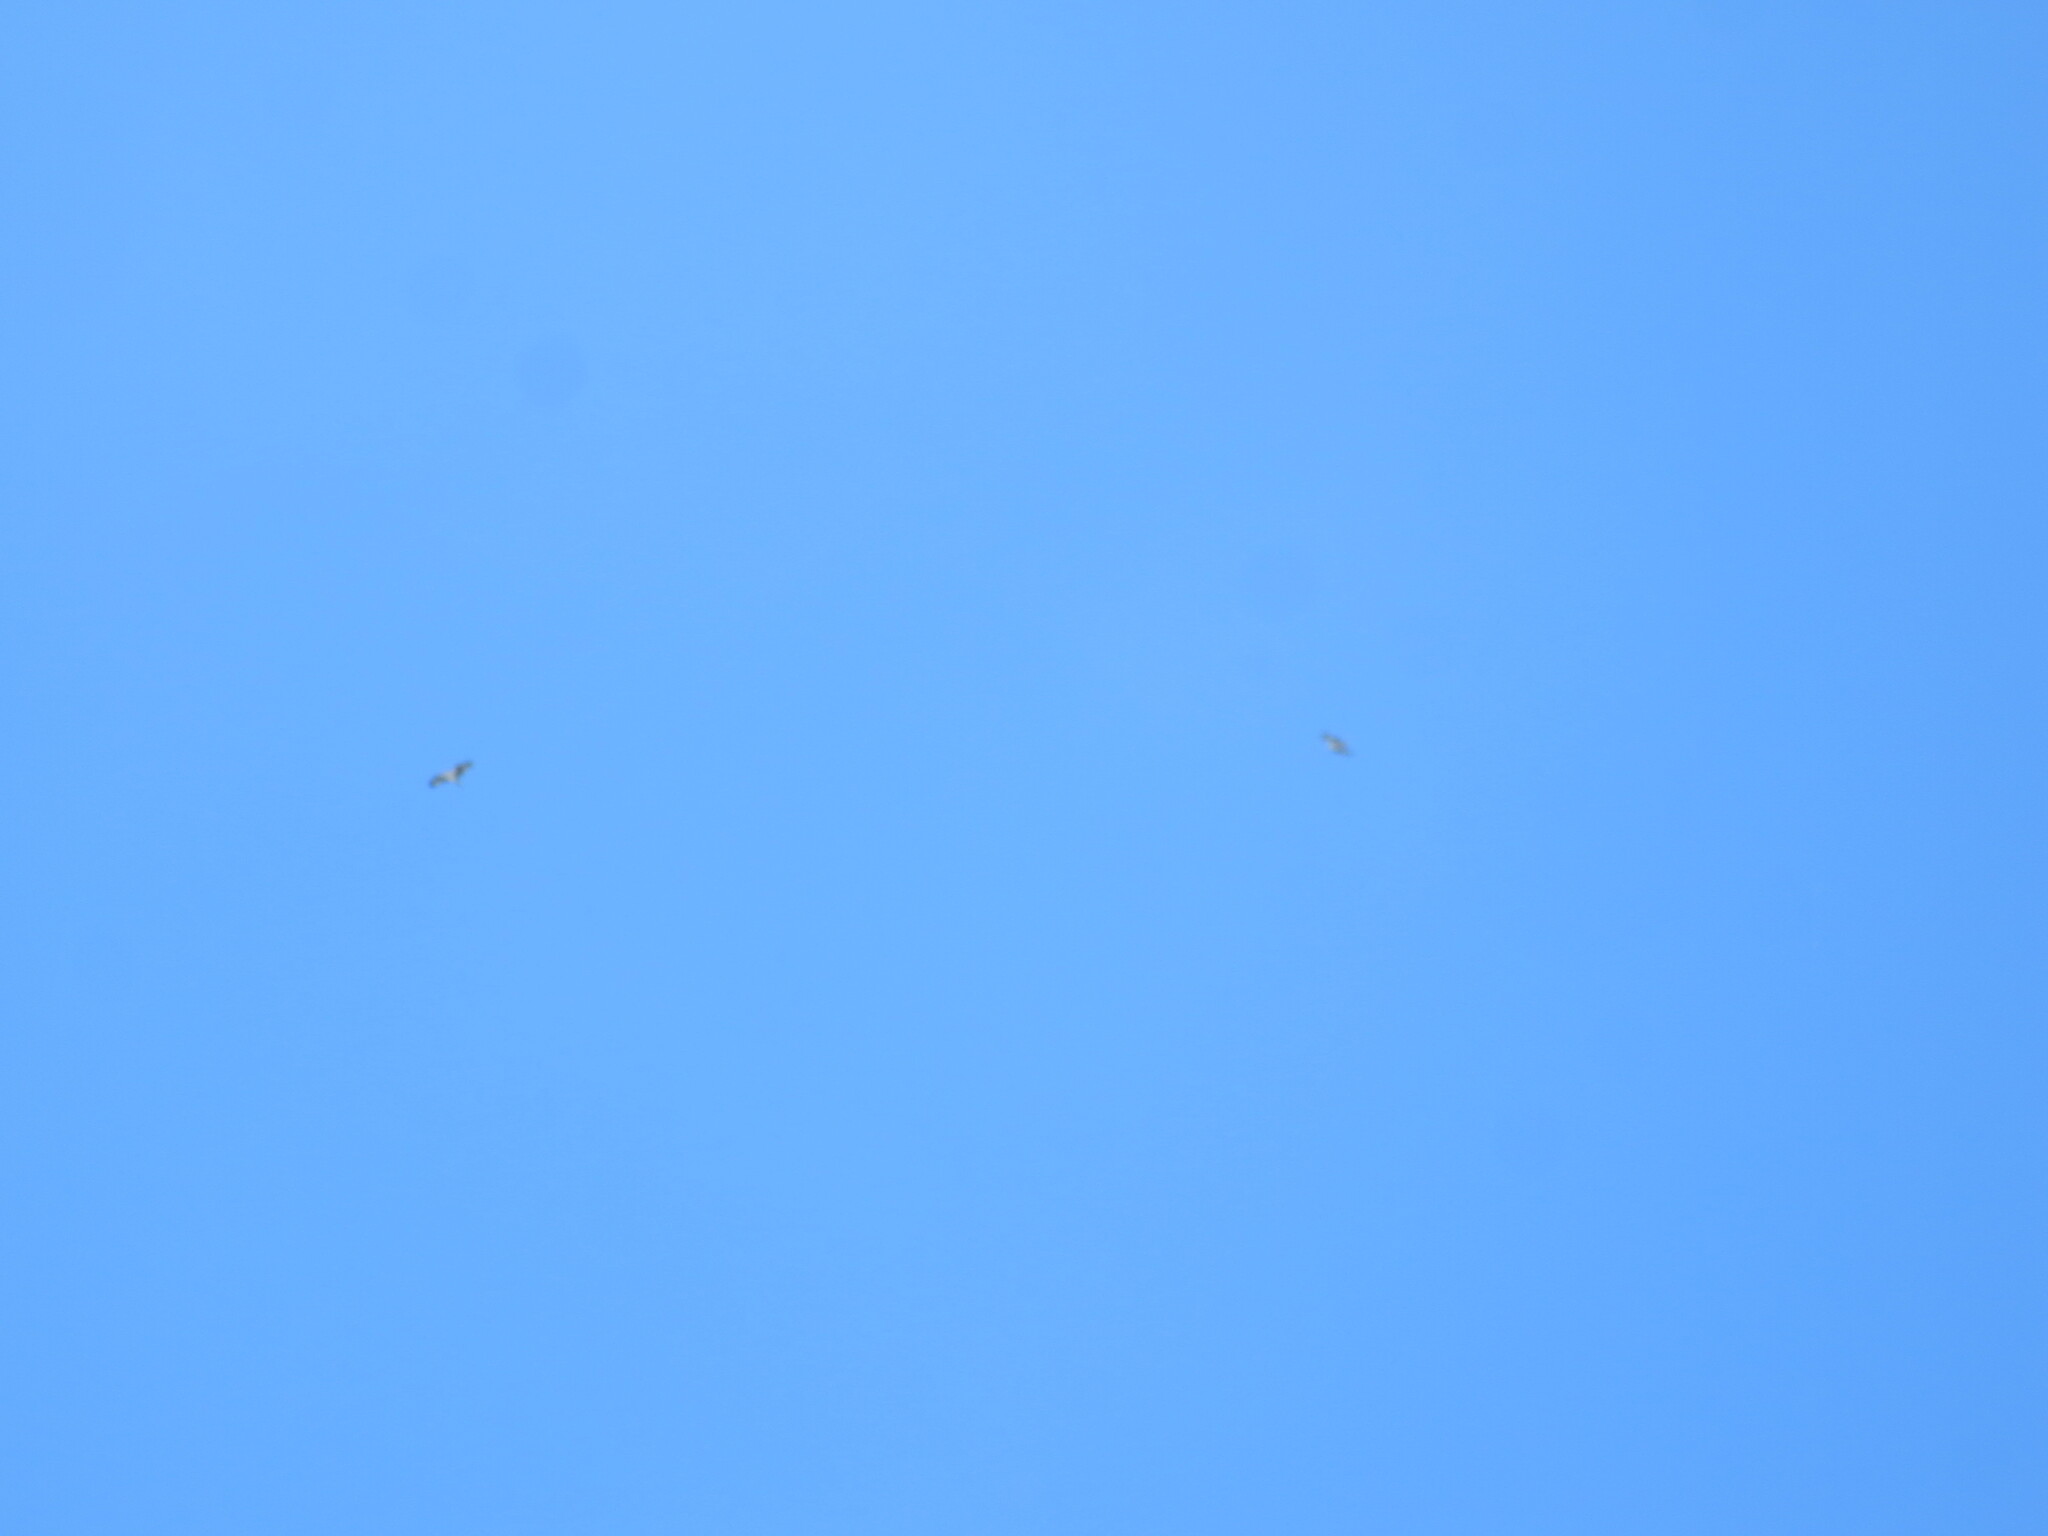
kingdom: Animalia
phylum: Chordata
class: Aves
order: Accipitriformes
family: Pandionidae
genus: Pandion
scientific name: Pandion haliaetus
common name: Osprey
